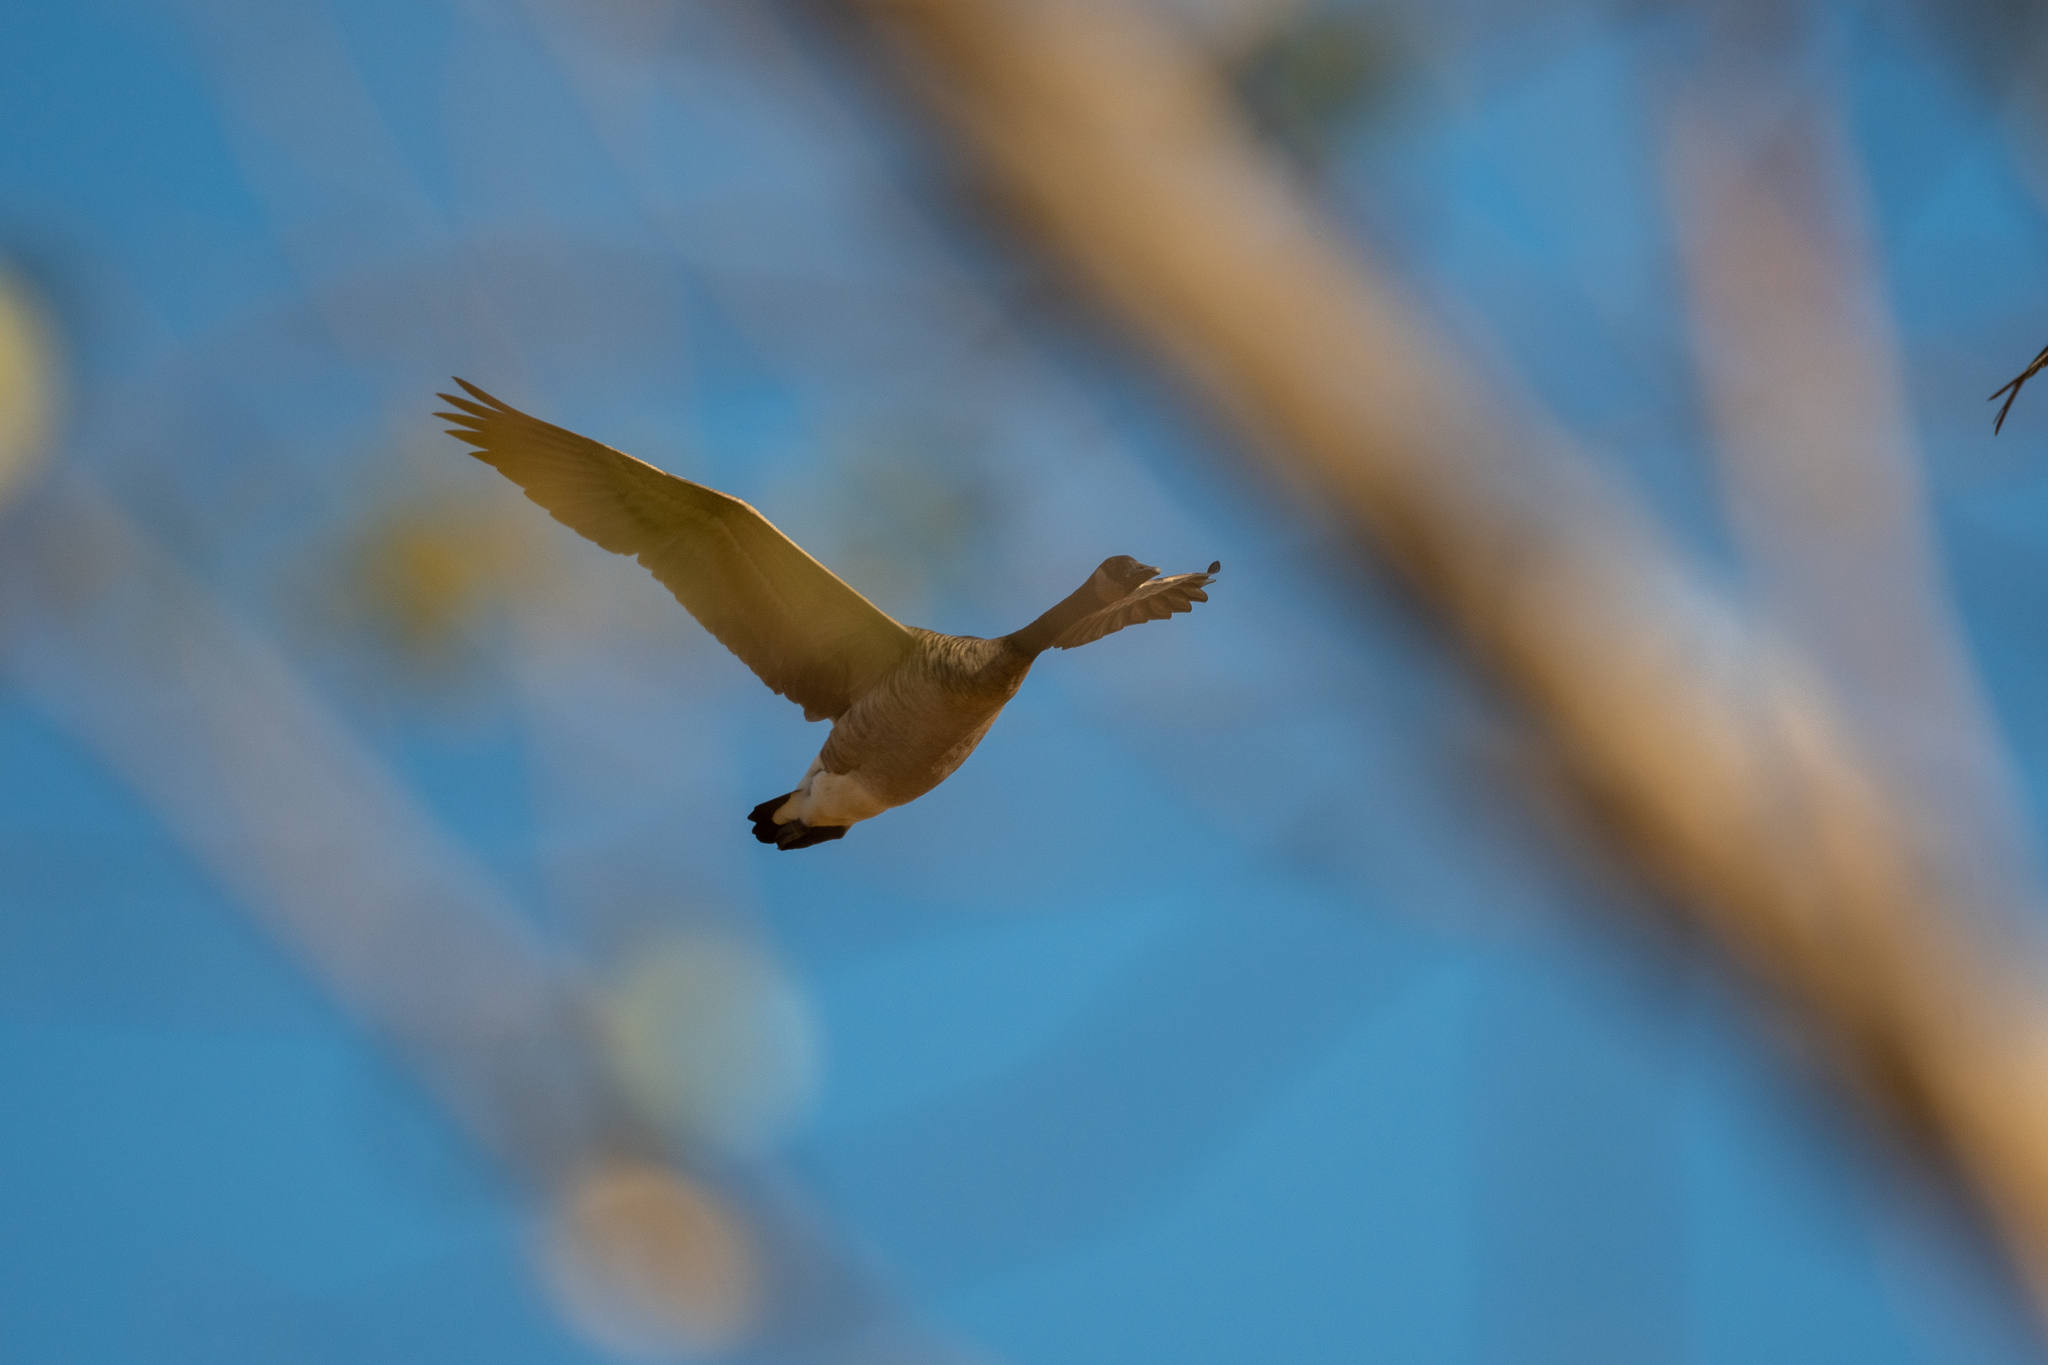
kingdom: Animalia
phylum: Chordata
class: Aves
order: Anseriformes
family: Anatidae
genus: Branta
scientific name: Branta canadensis
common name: Canada goose
